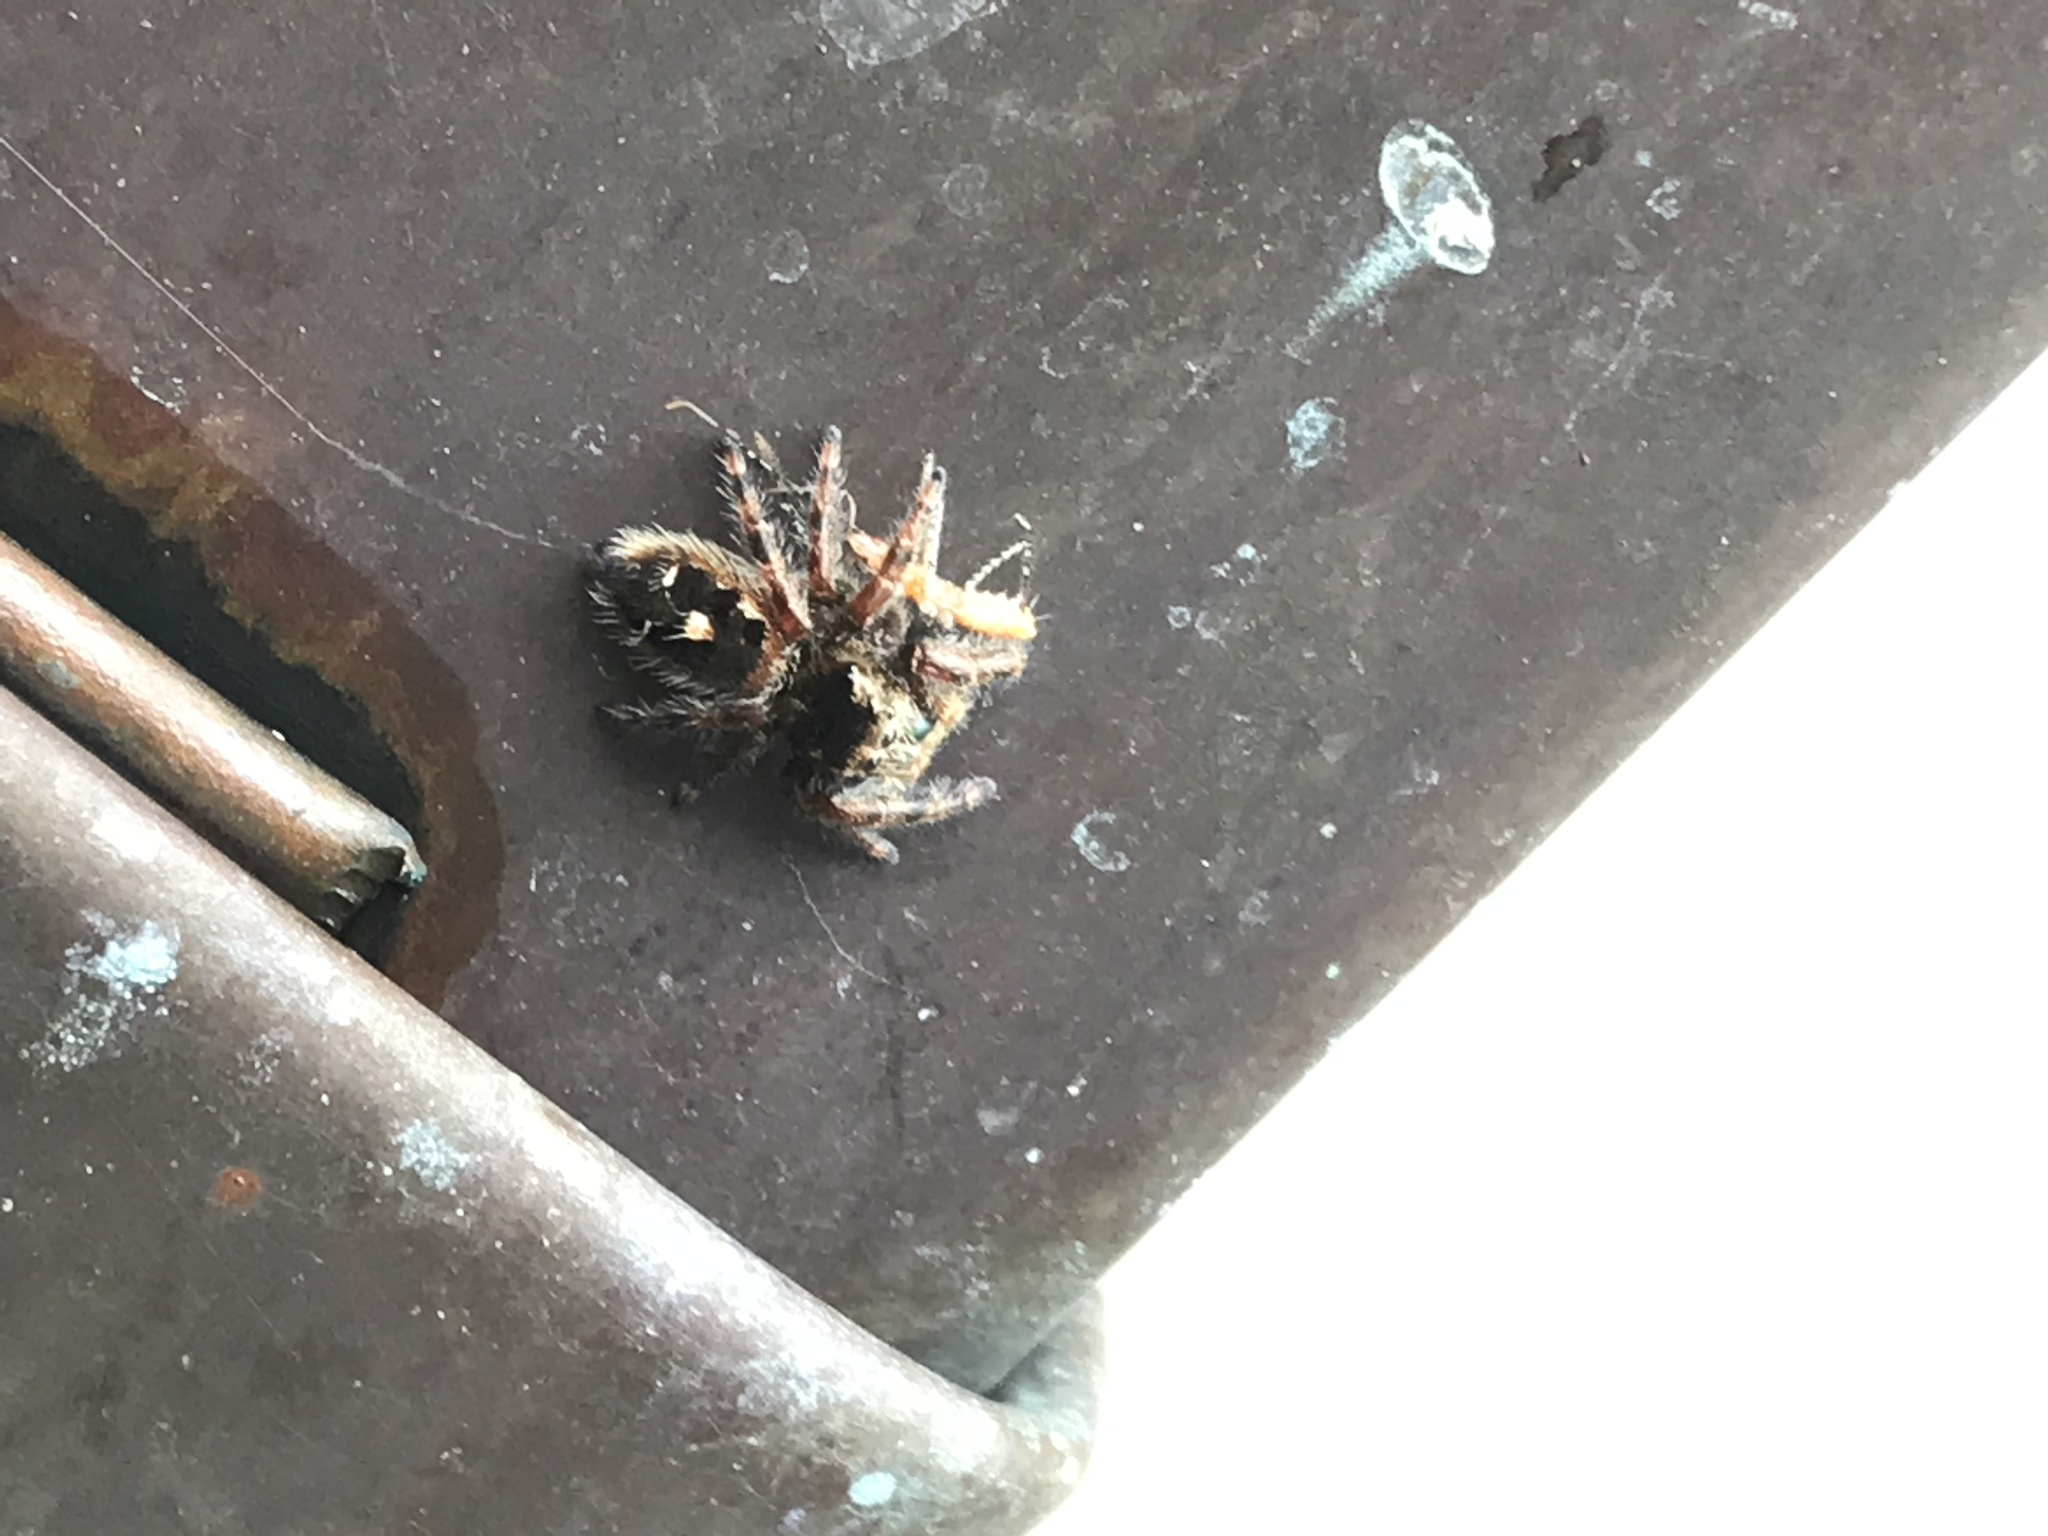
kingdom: Animalia
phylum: Arthropoda
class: Arachnida
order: Araneae
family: Salticidae
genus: Phidippus
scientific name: Phidippus audax
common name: Bold jumper
